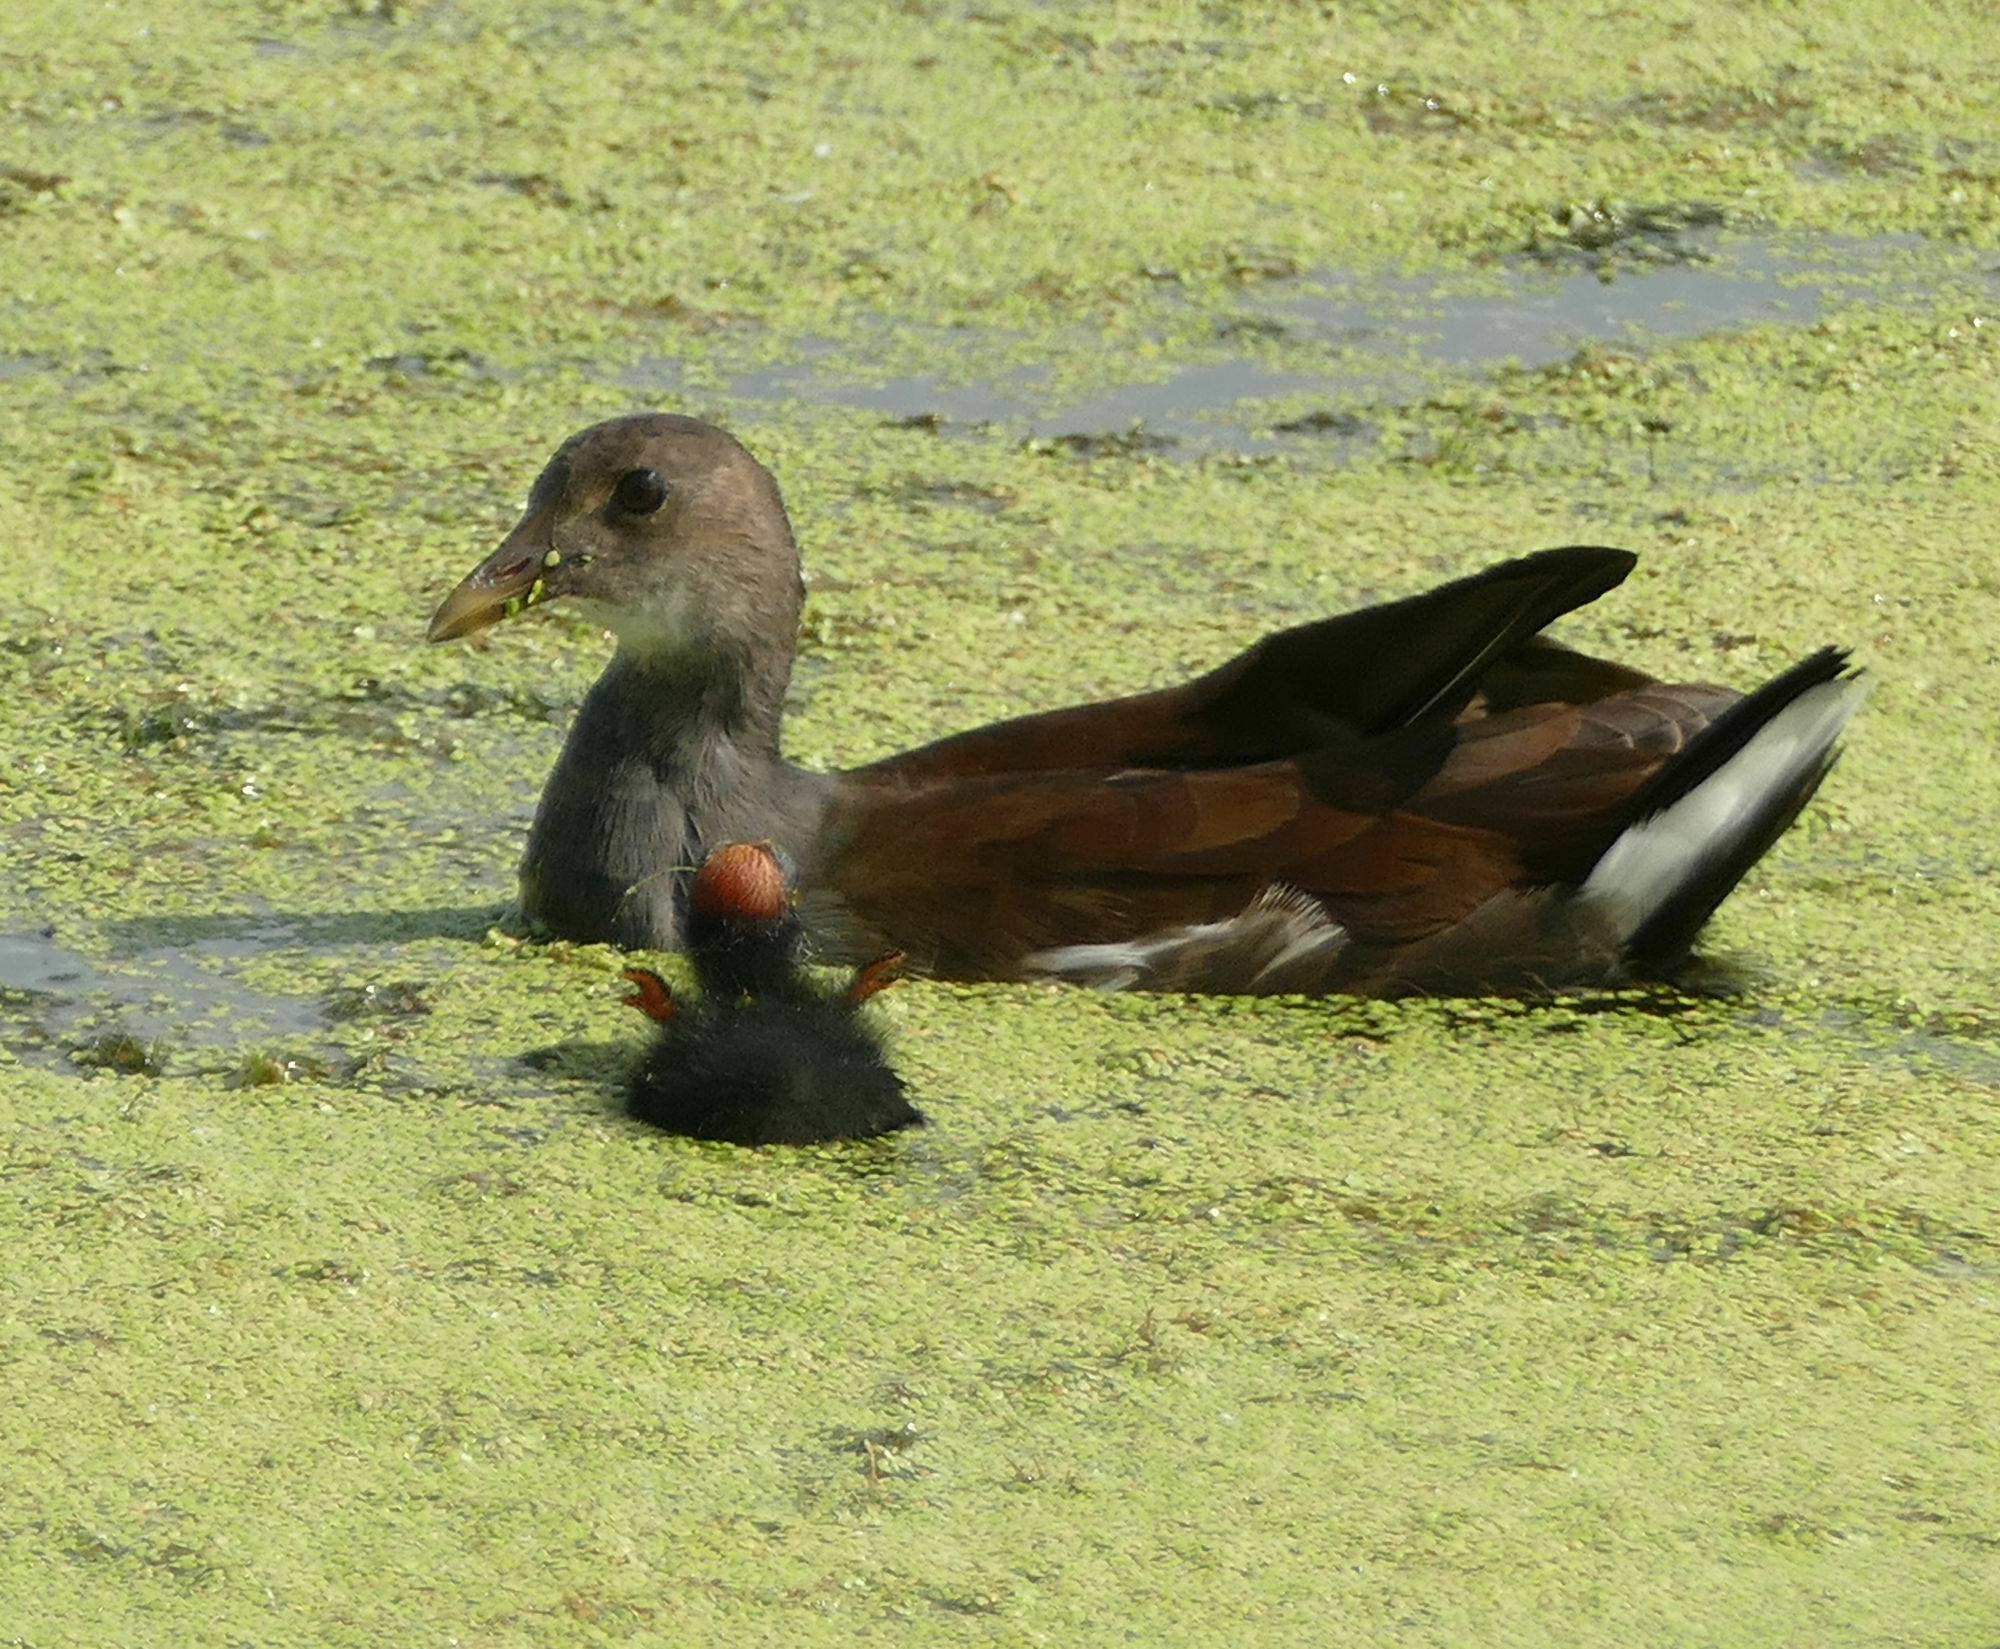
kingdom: Animalia
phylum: Chordata
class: Aves
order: Gruiformes
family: Rallidae
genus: Gallinula
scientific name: Gallinula chloropus
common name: Common moorhen
